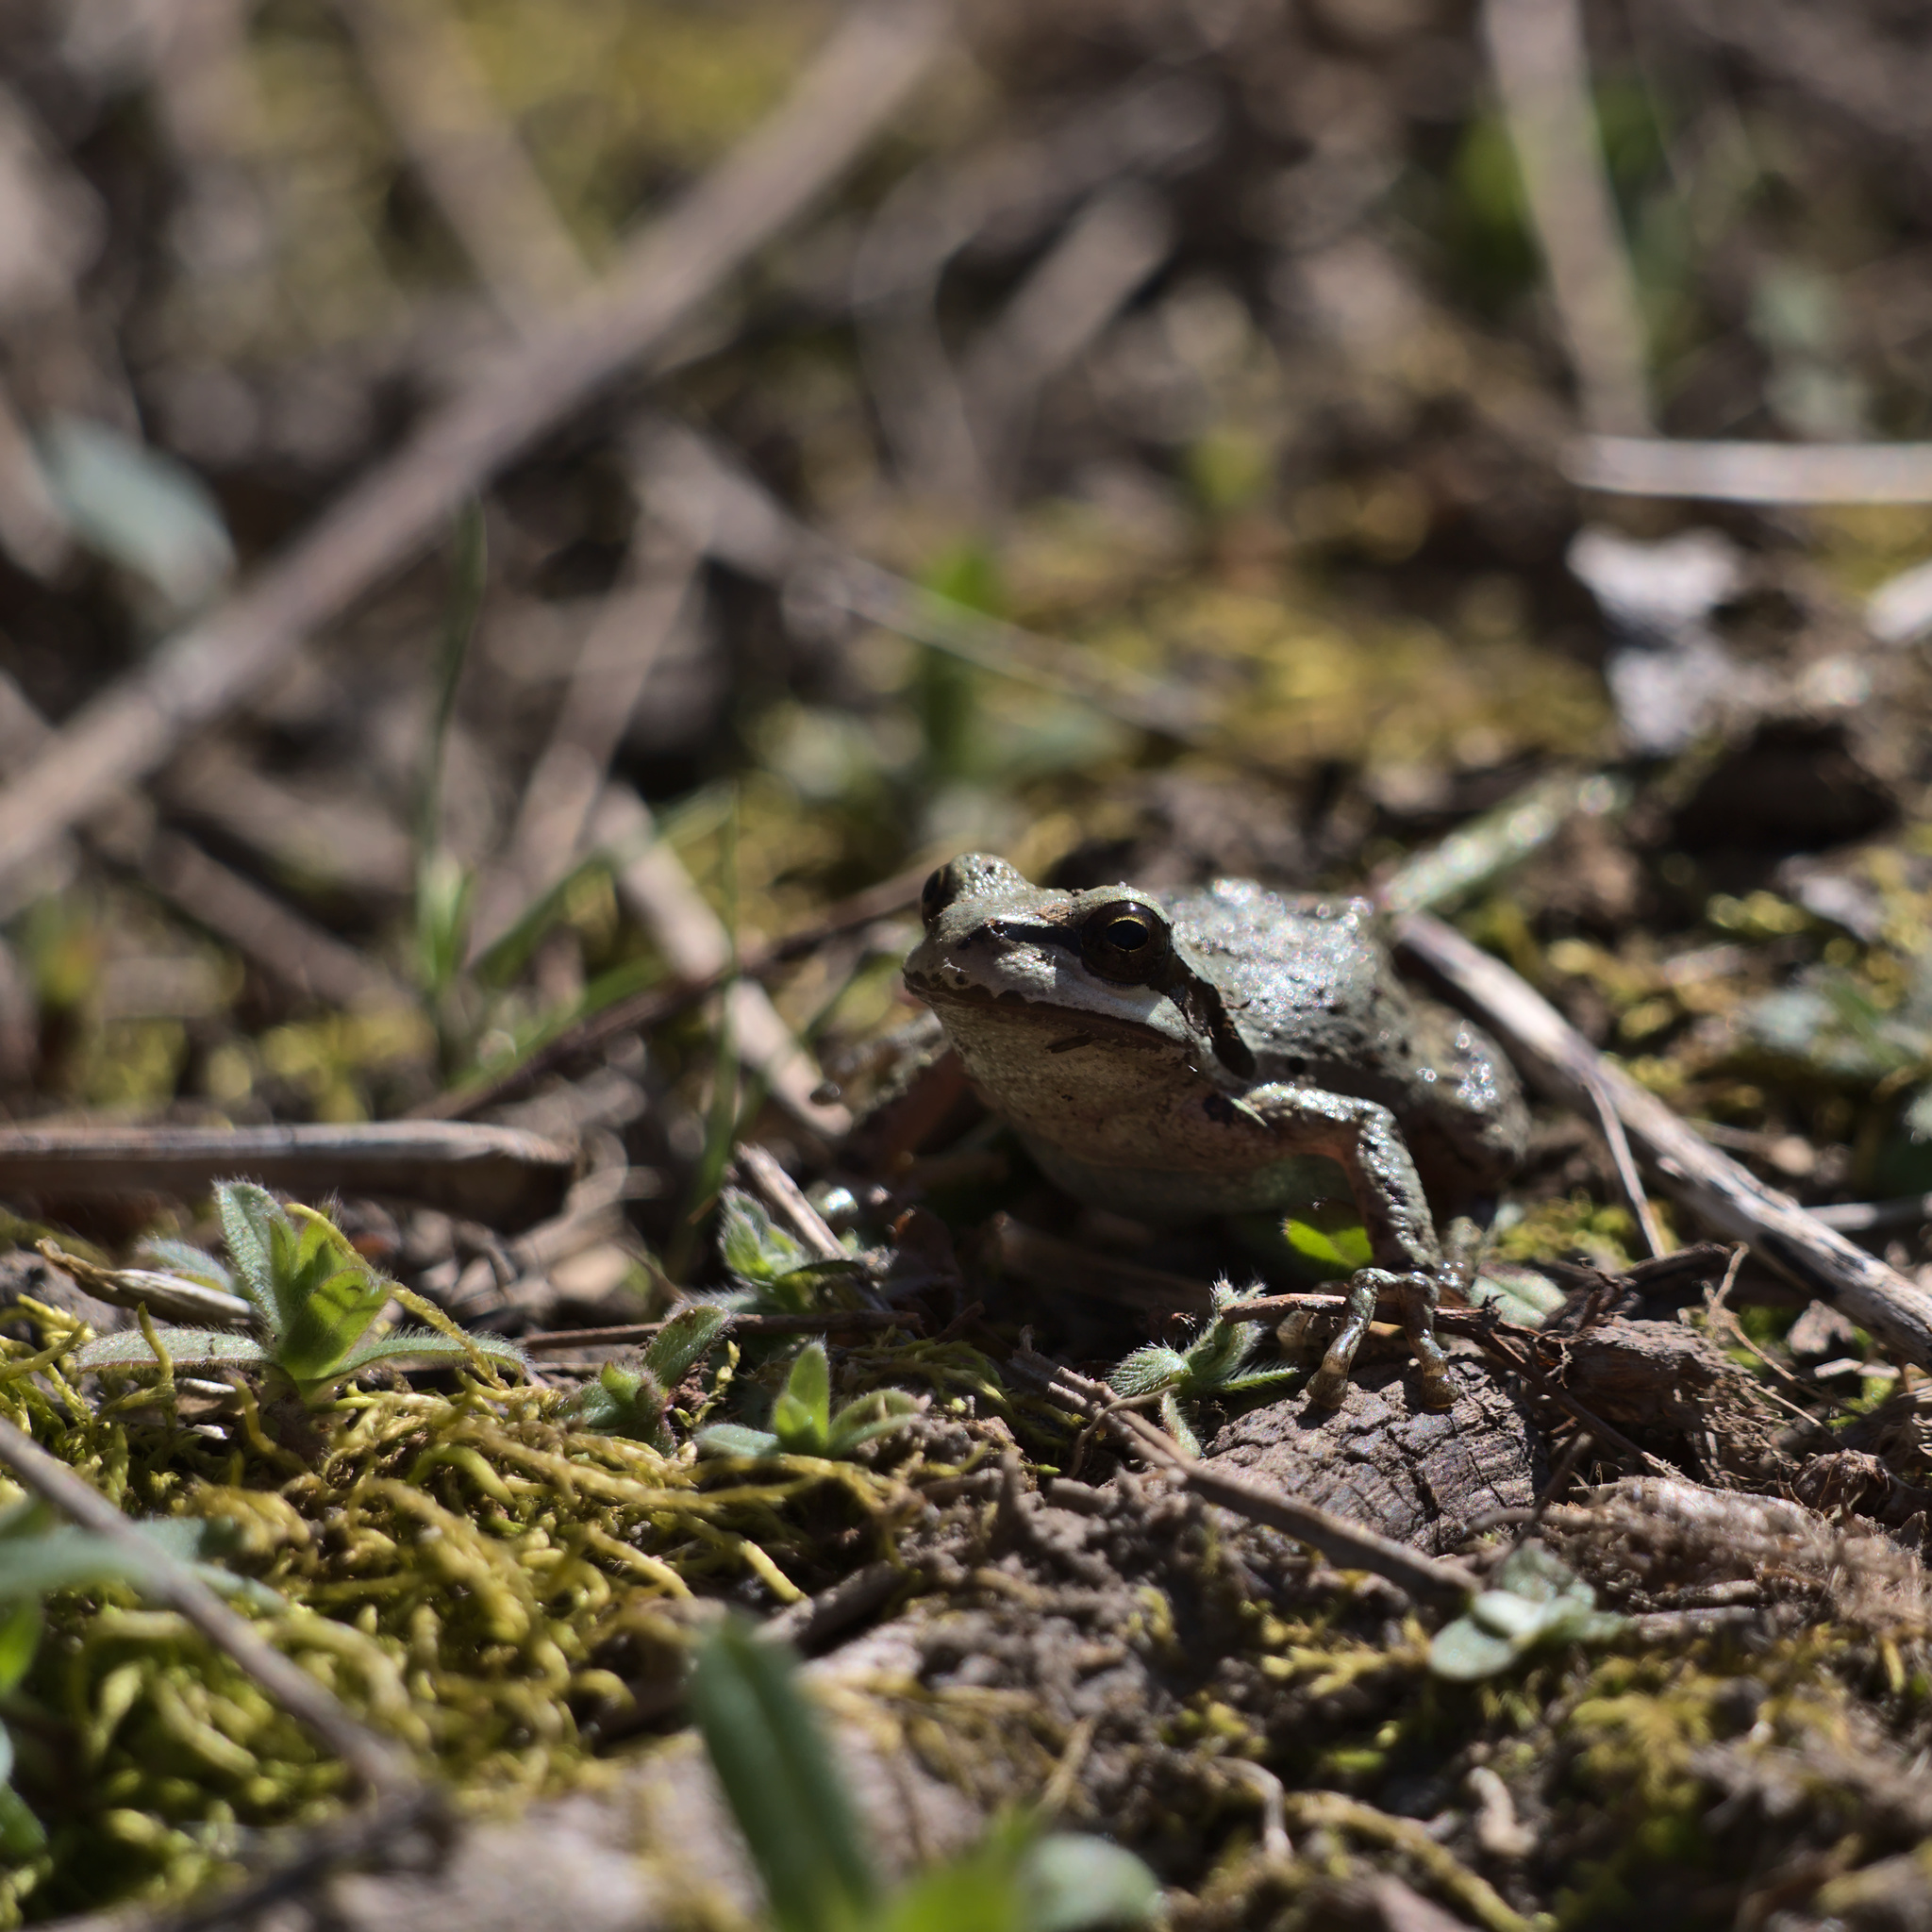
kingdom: Animalia
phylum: Chordata
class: Amphibia
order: Anura
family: Hylidae
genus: Pseudacris
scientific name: Pseudacris regilla
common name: Pacific chorus frog
